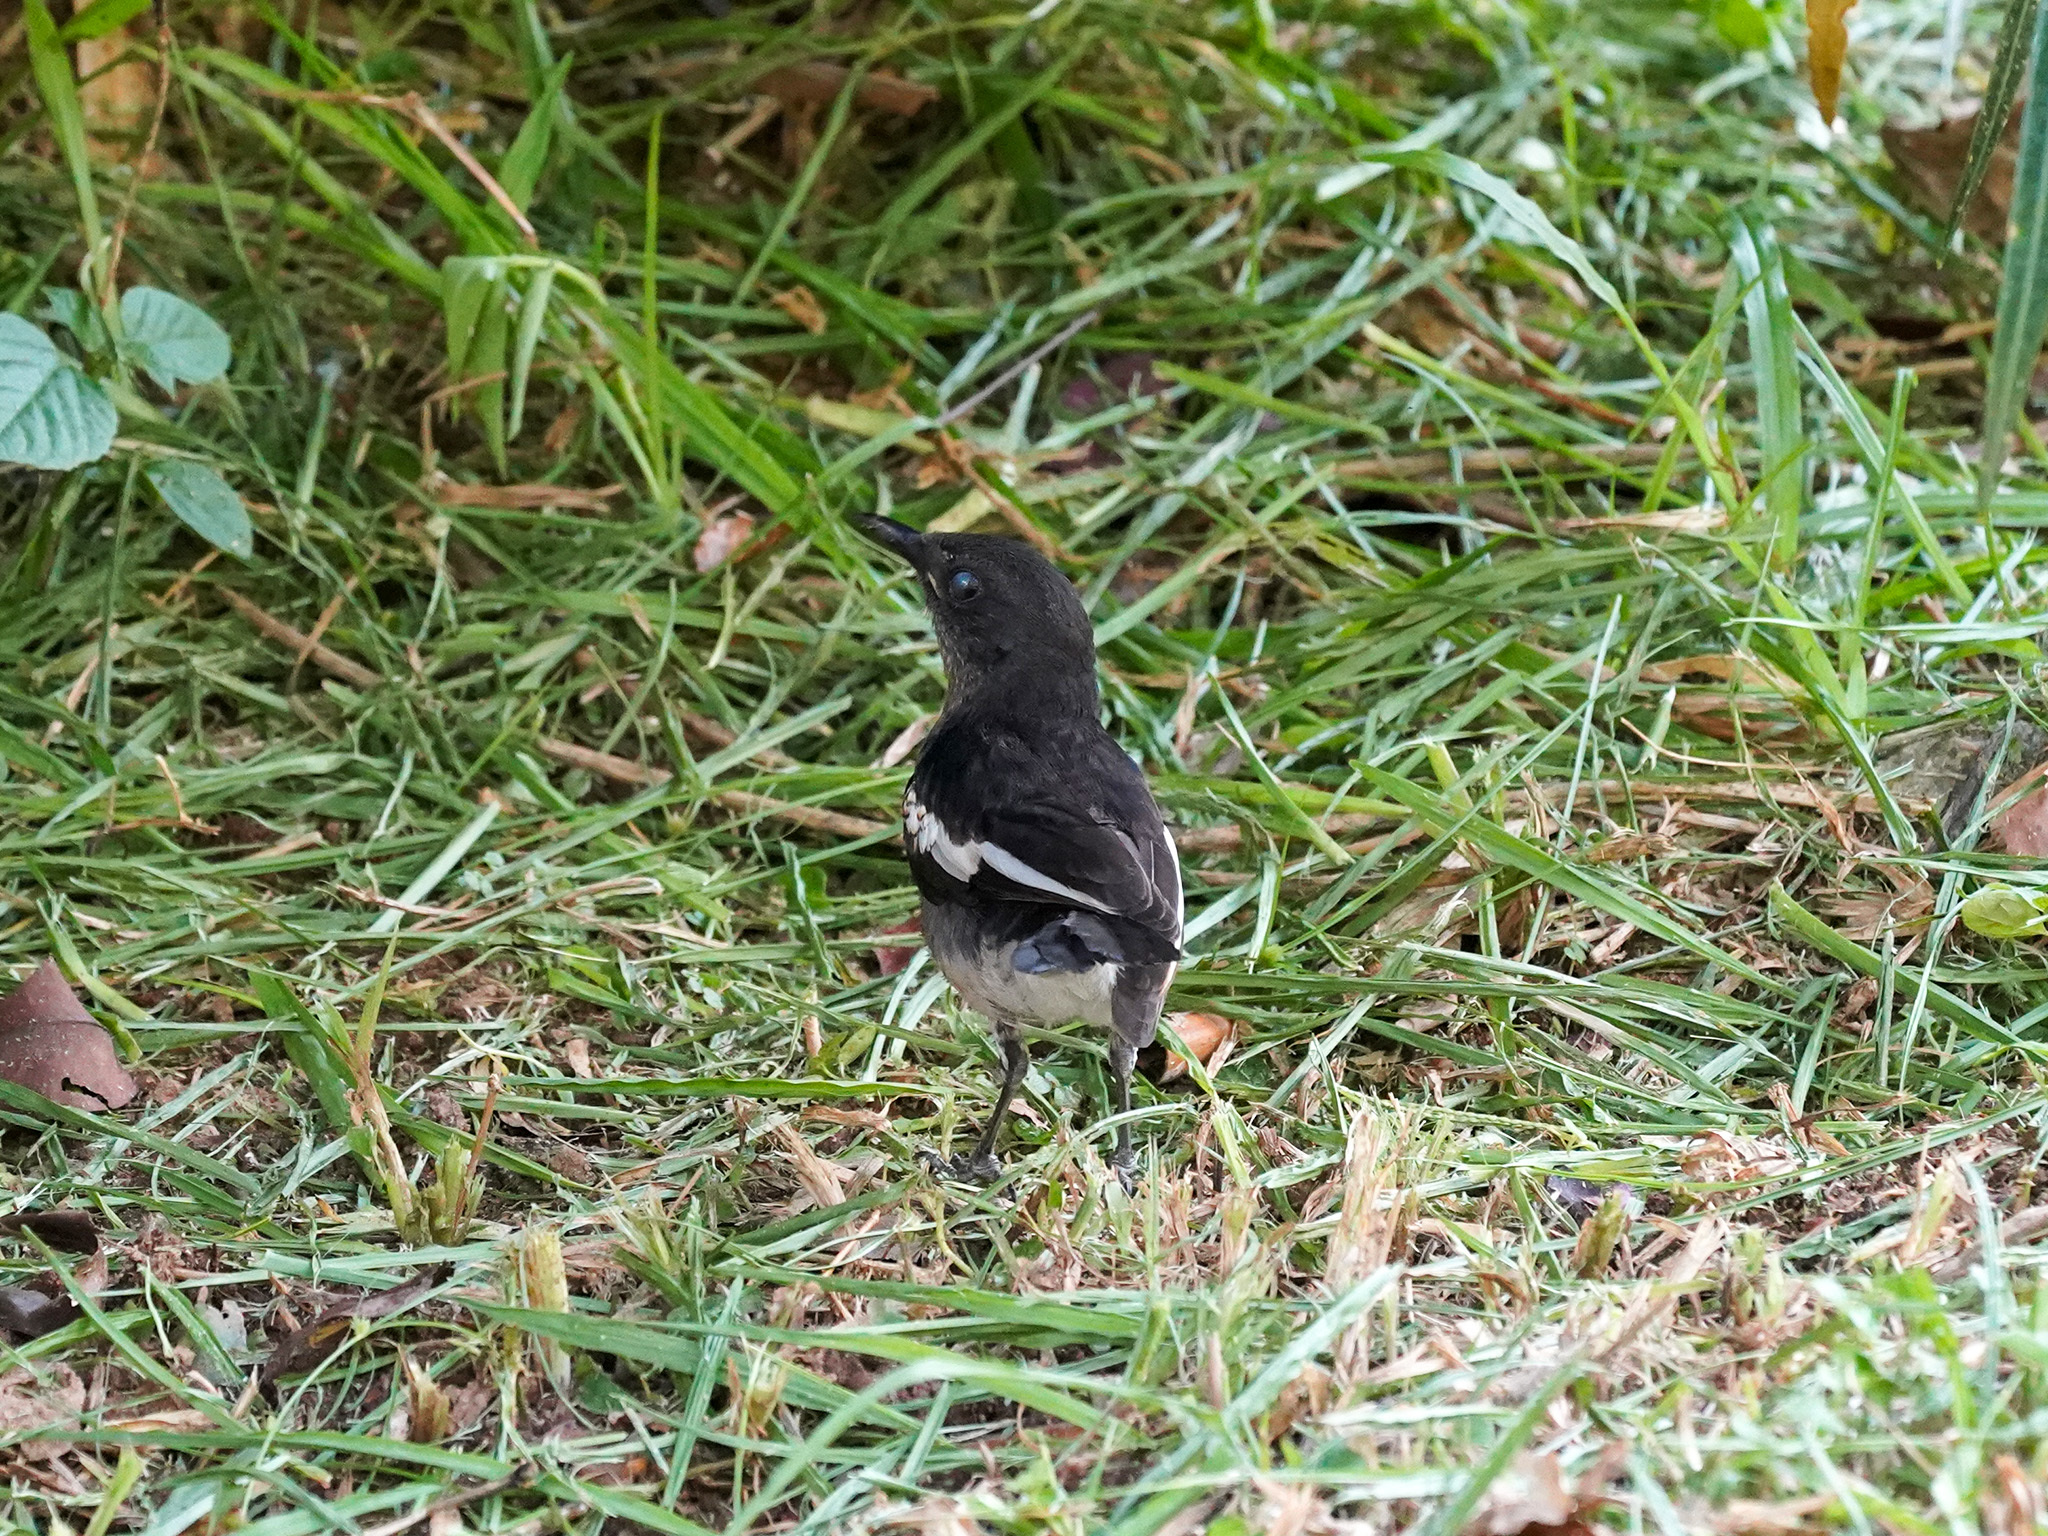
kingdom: Animalia
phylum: Chordata
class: Aves
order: Passeriformes
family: Muscicapidae
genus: Copsychus
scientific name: Copsychus saularis
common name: Oriental magpie-robin
